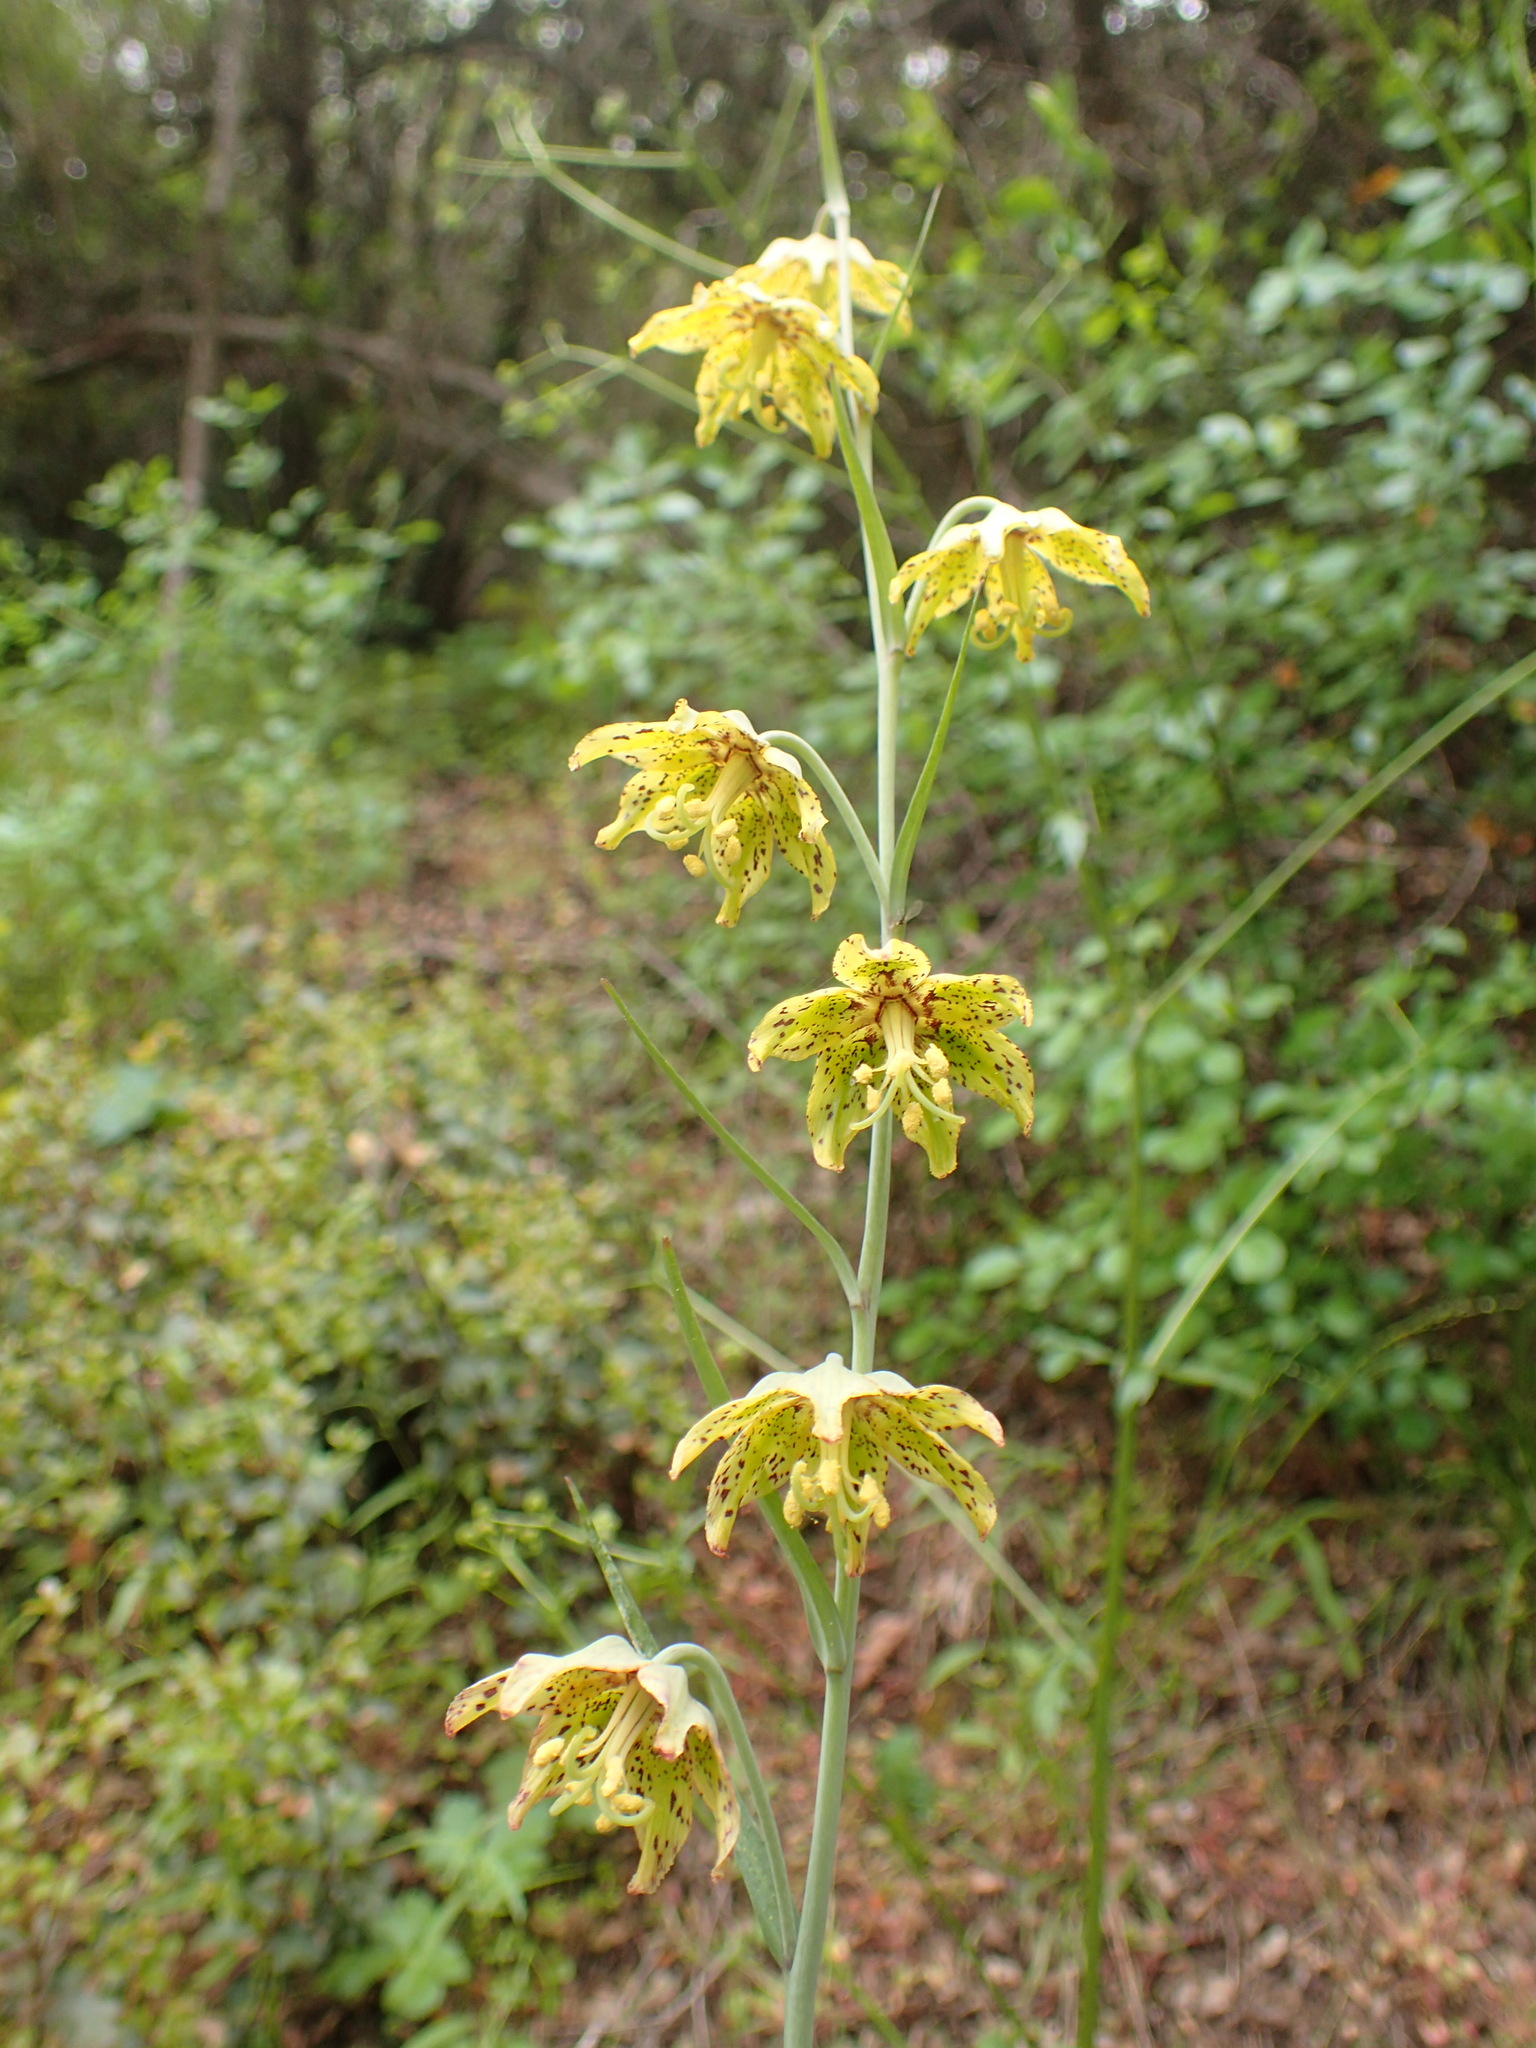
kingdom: Plantae
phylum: Tracheophyta
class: Liliopsida
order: Liliales
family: Liliaceae
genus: Fritillaria
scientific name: Fritillaria ojaiensis
